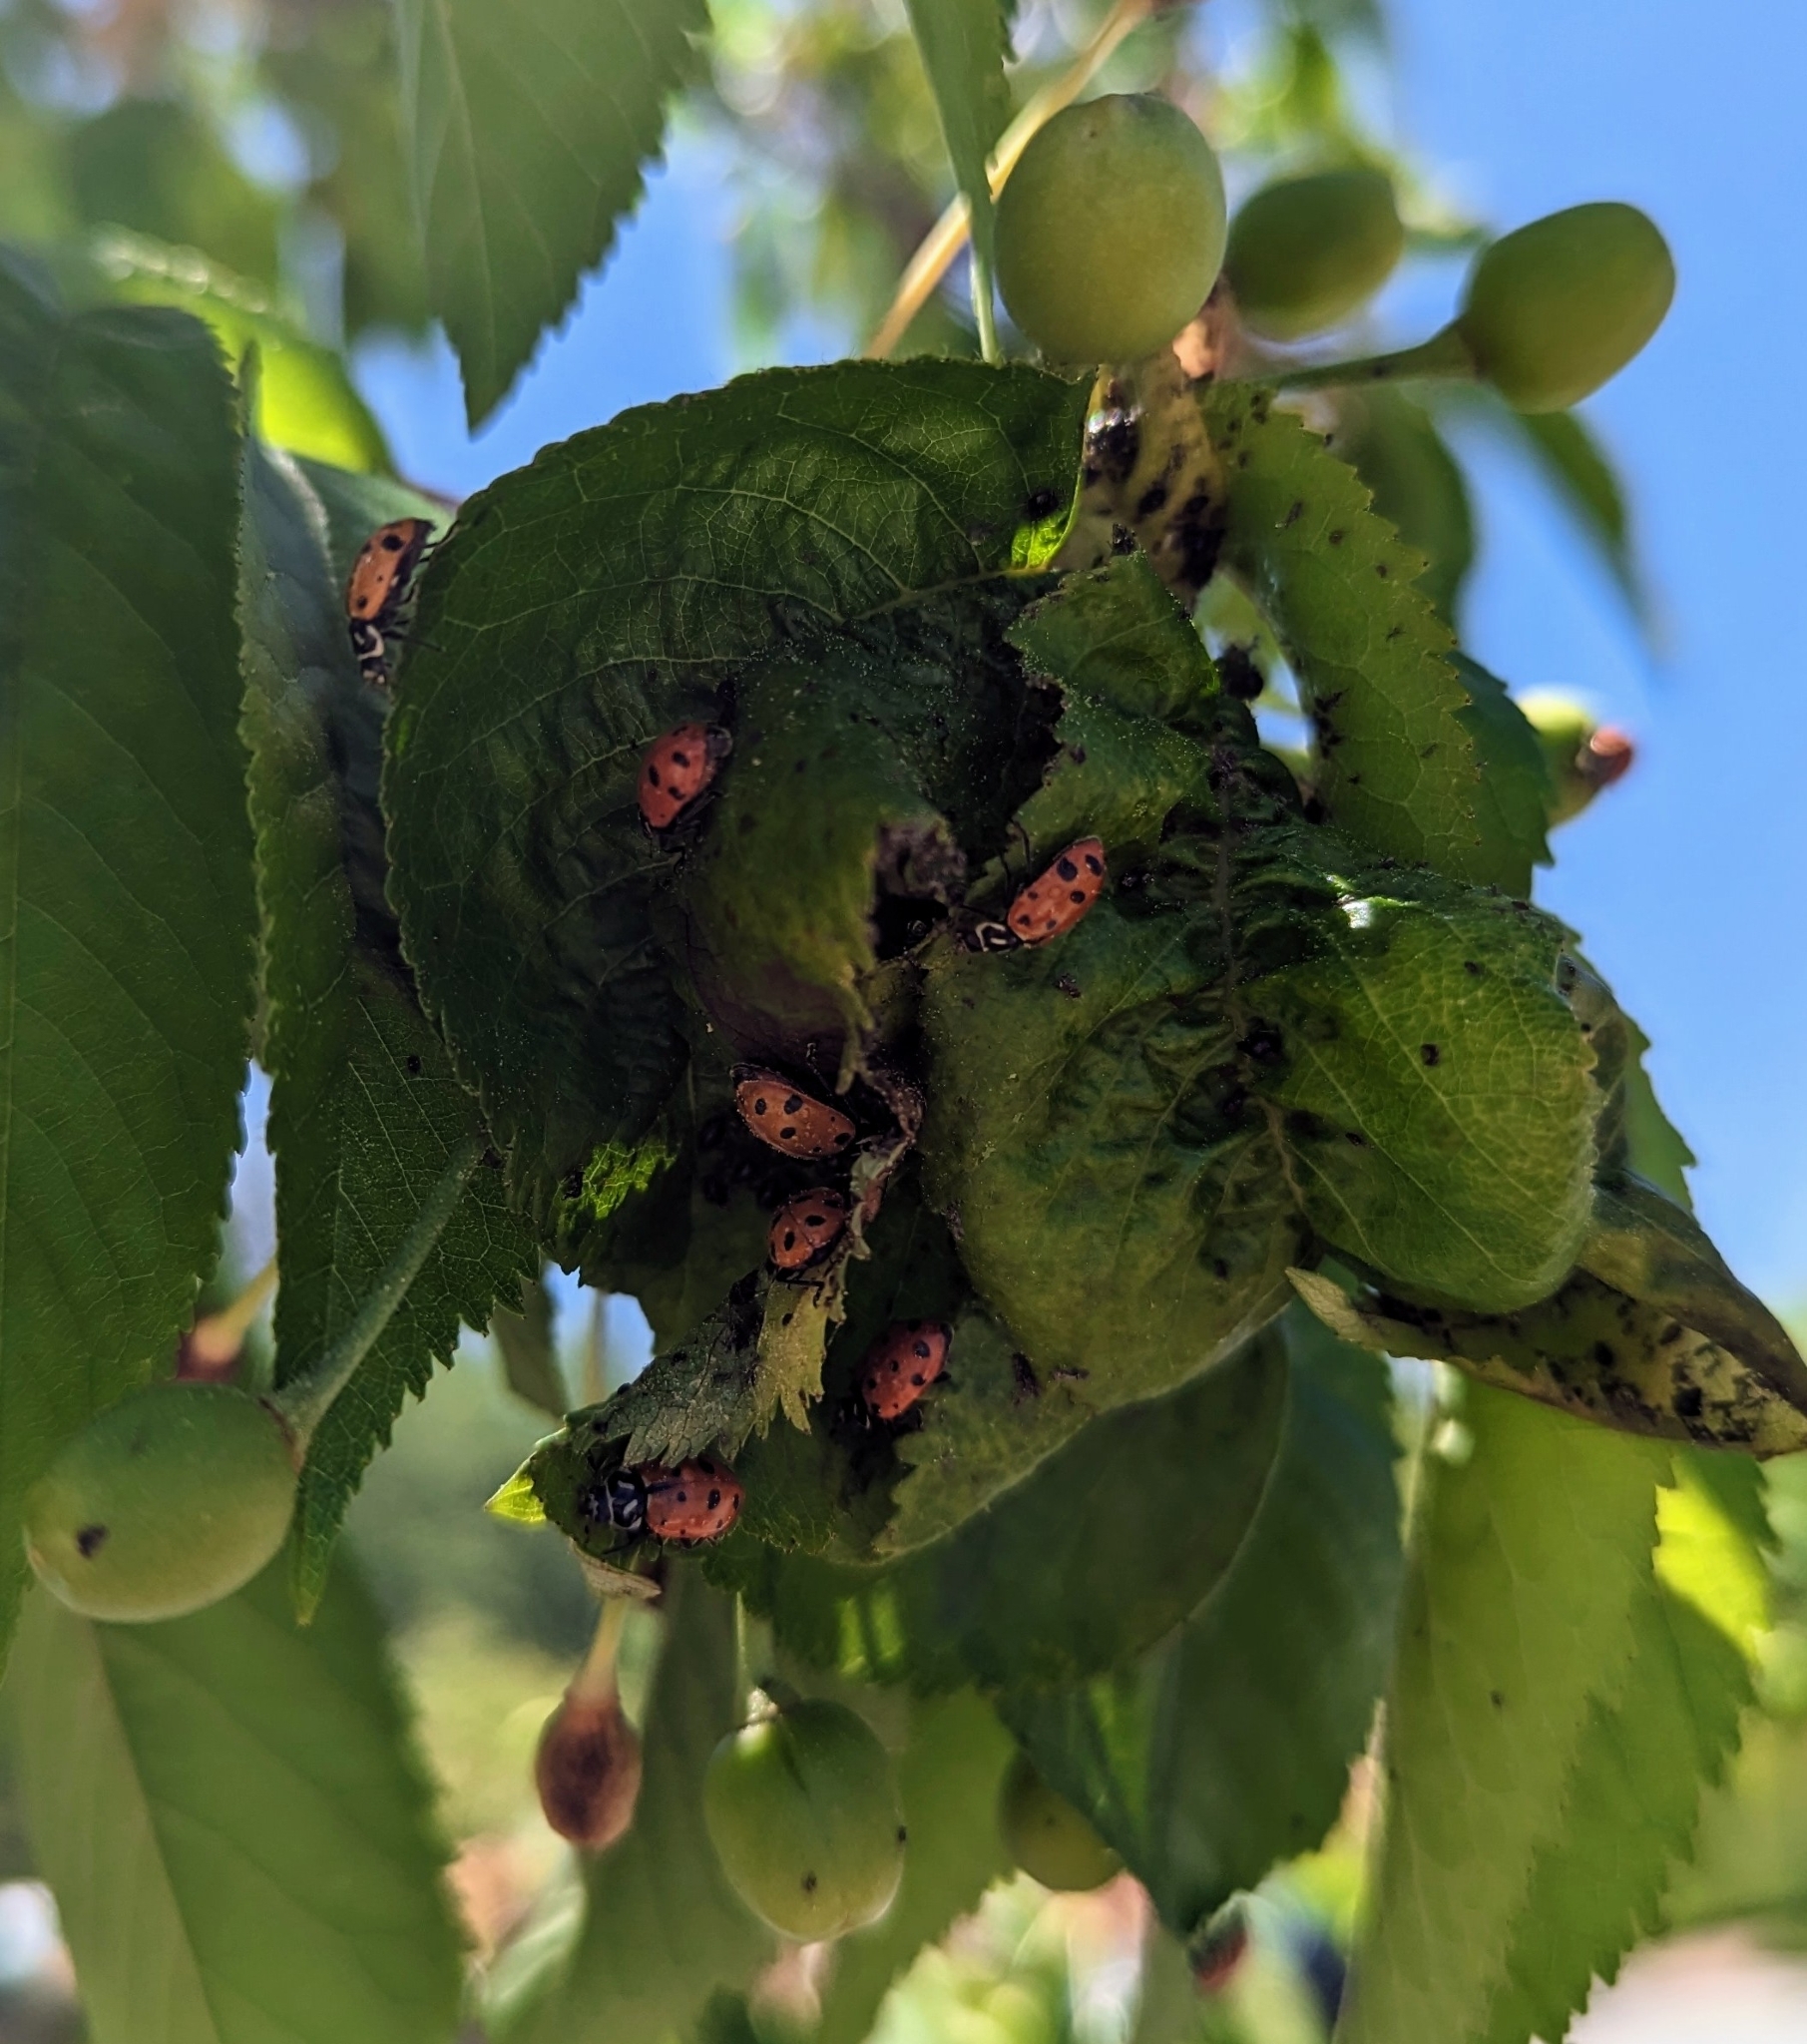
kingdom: Animalia
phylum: Arthropoda
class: Insecta
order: Coleoptera
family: Coccinellidae
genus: Hippodamia
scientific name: Hippodamia convergens
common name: Convergent lady beetle
